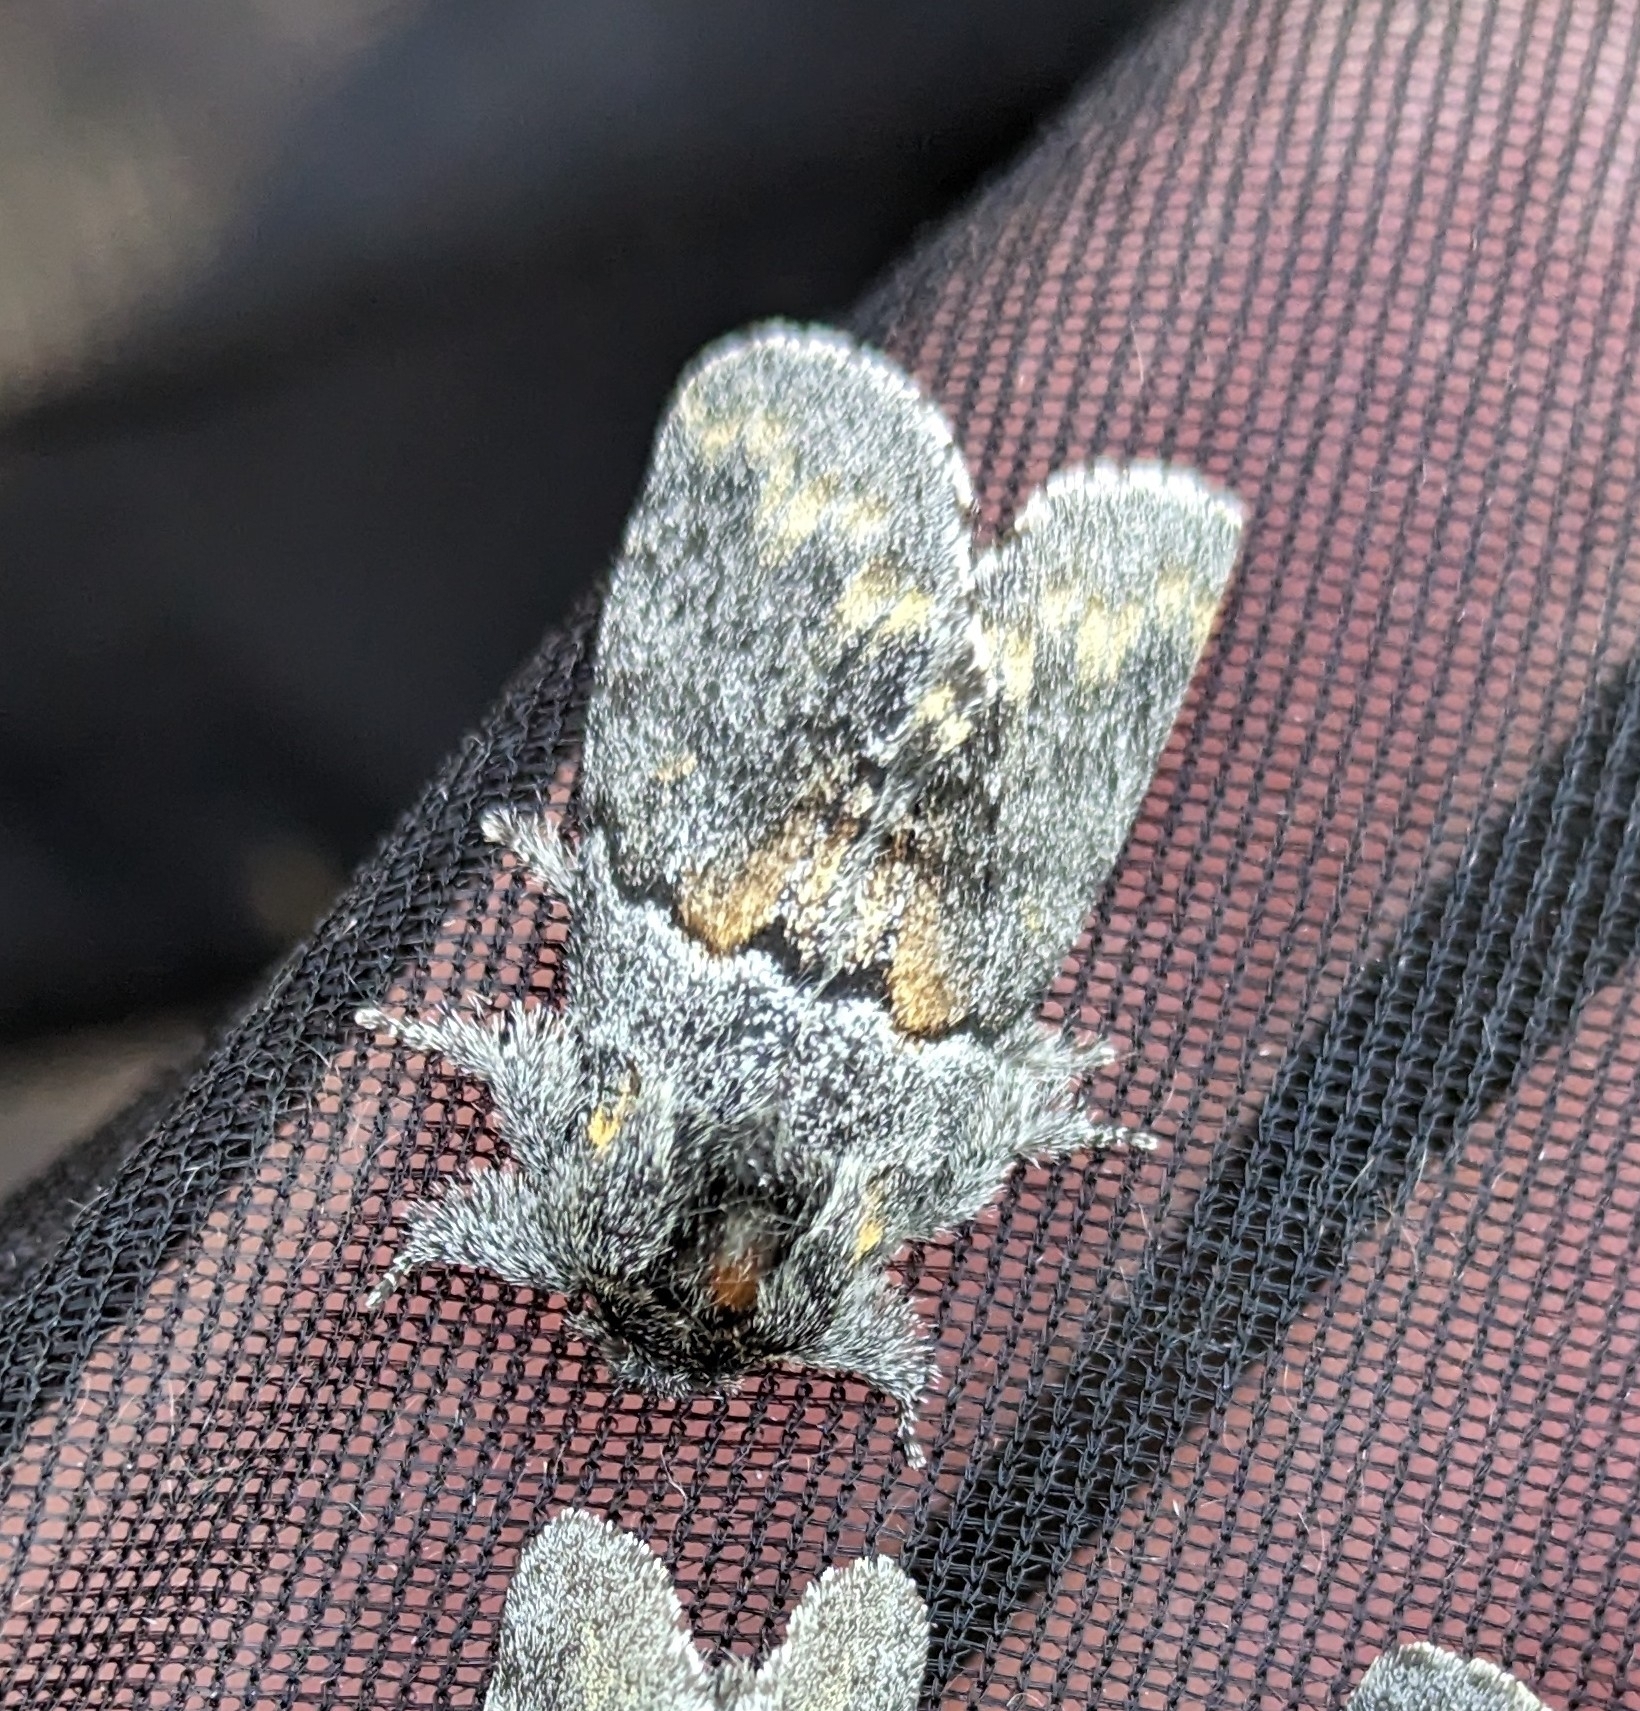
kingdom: Animalia
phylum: Arthropoda
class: Insecta
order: Lepidoptera
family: Notodontidae
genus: Gluphisia
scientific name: Gluphisia severa
